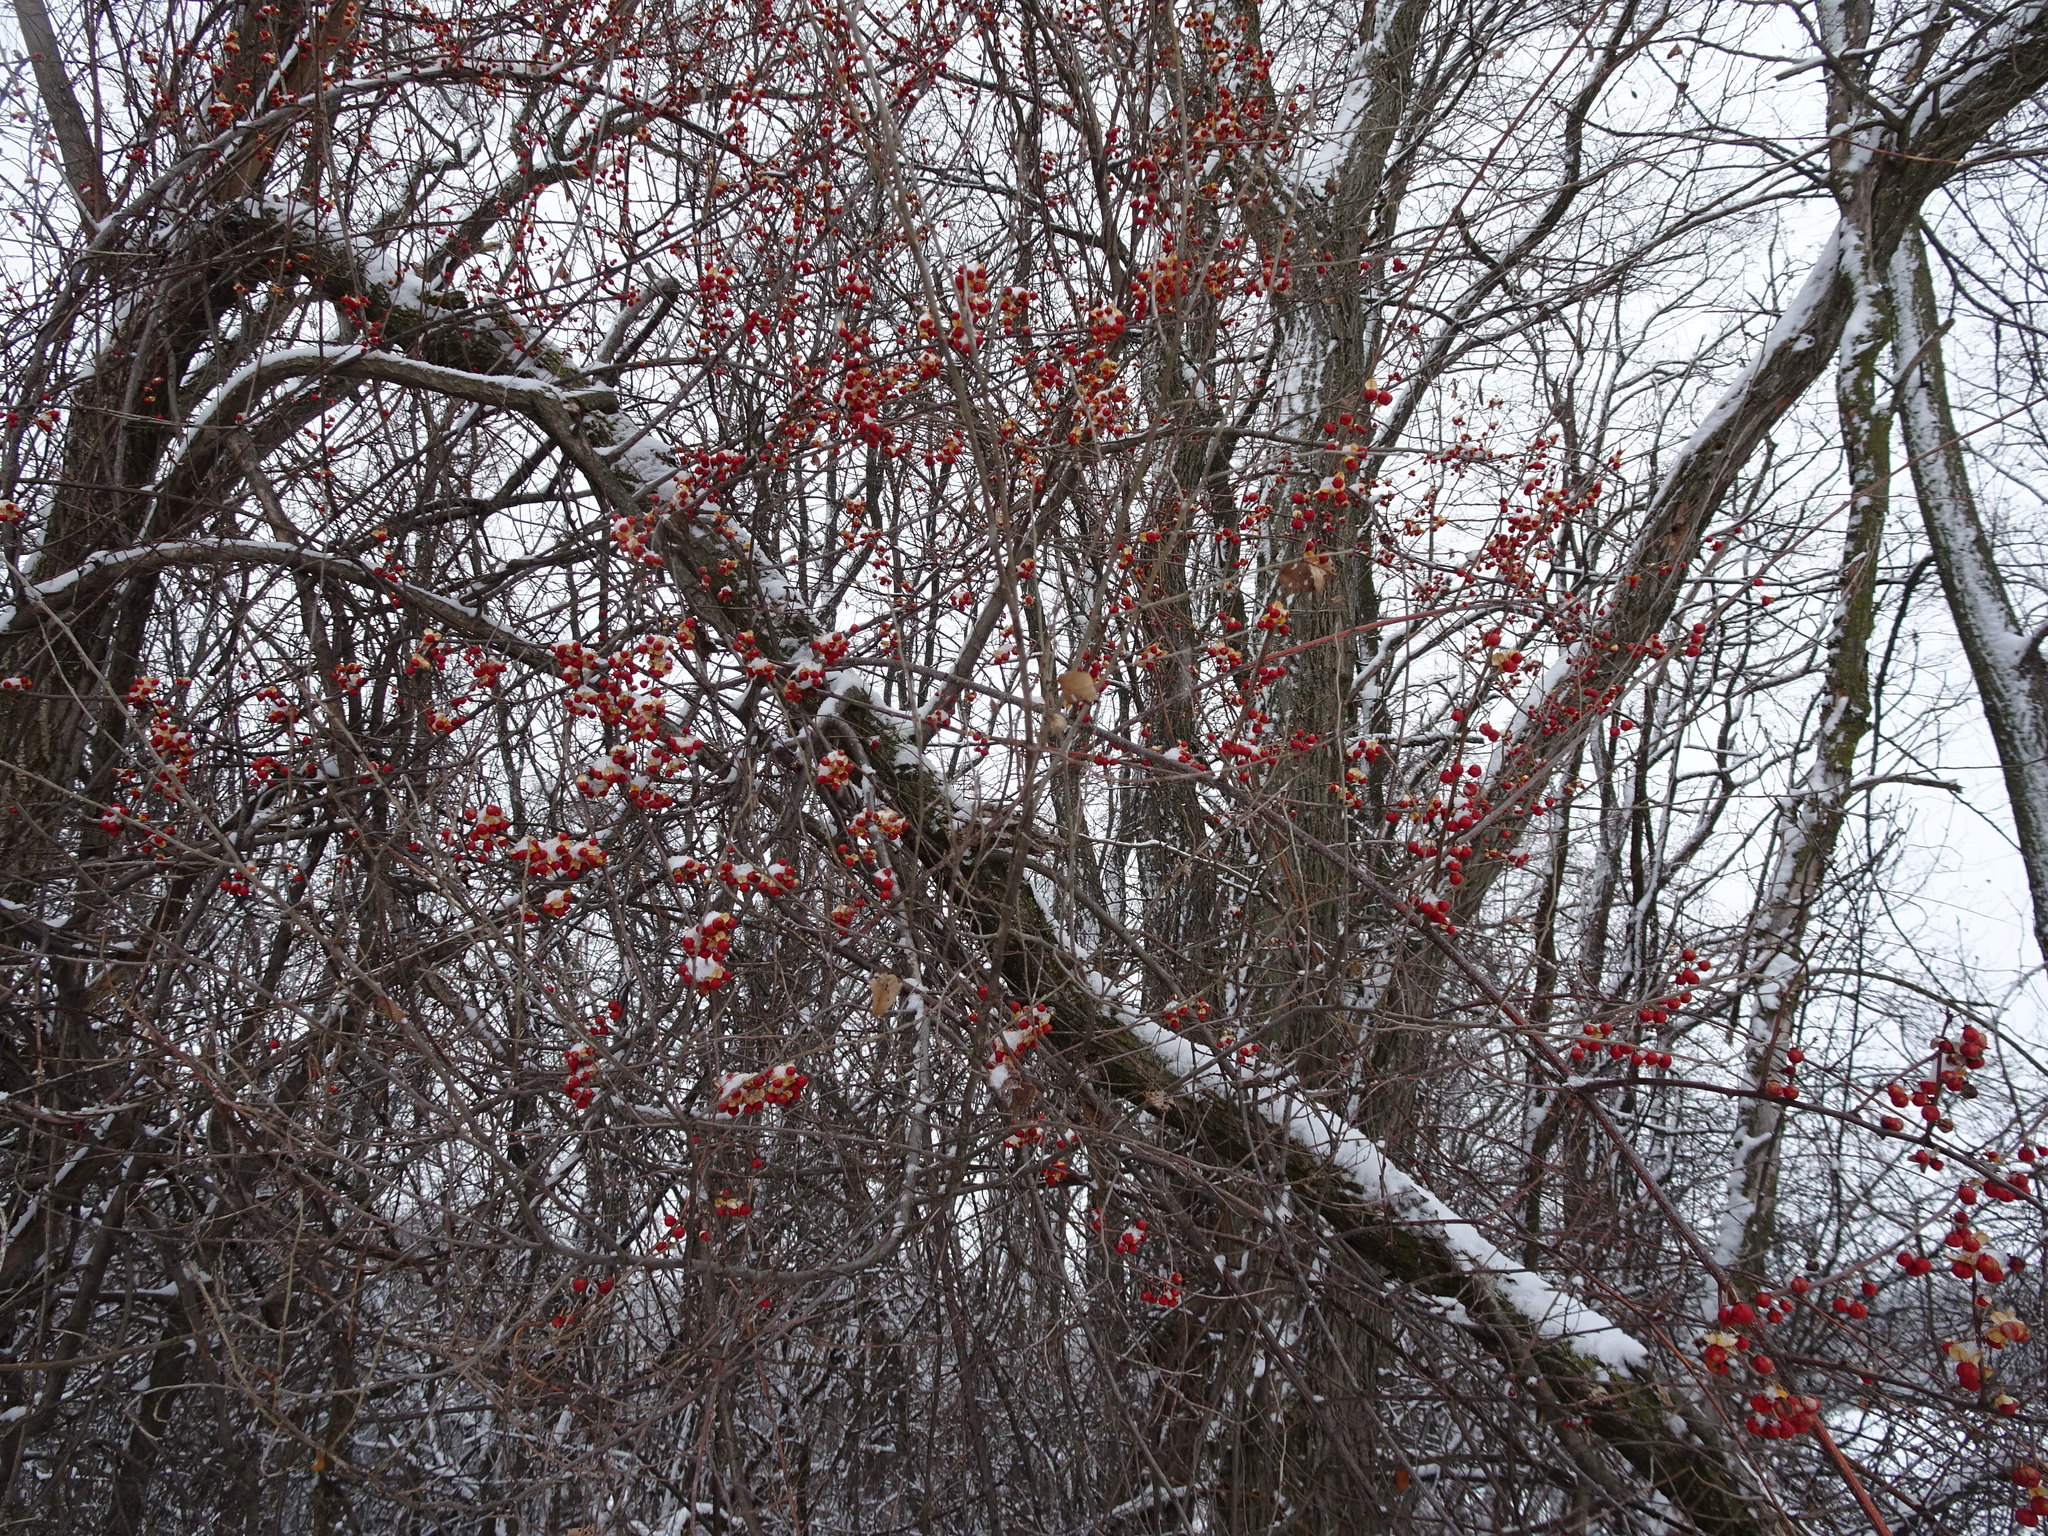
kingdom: Plantae
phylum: Tracheophyta
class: Magnoliopsida
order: Celastrales
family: Celastraceae
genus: Celastrus
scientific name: Celastrus orbiculatus
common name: Oriental bittersweet
